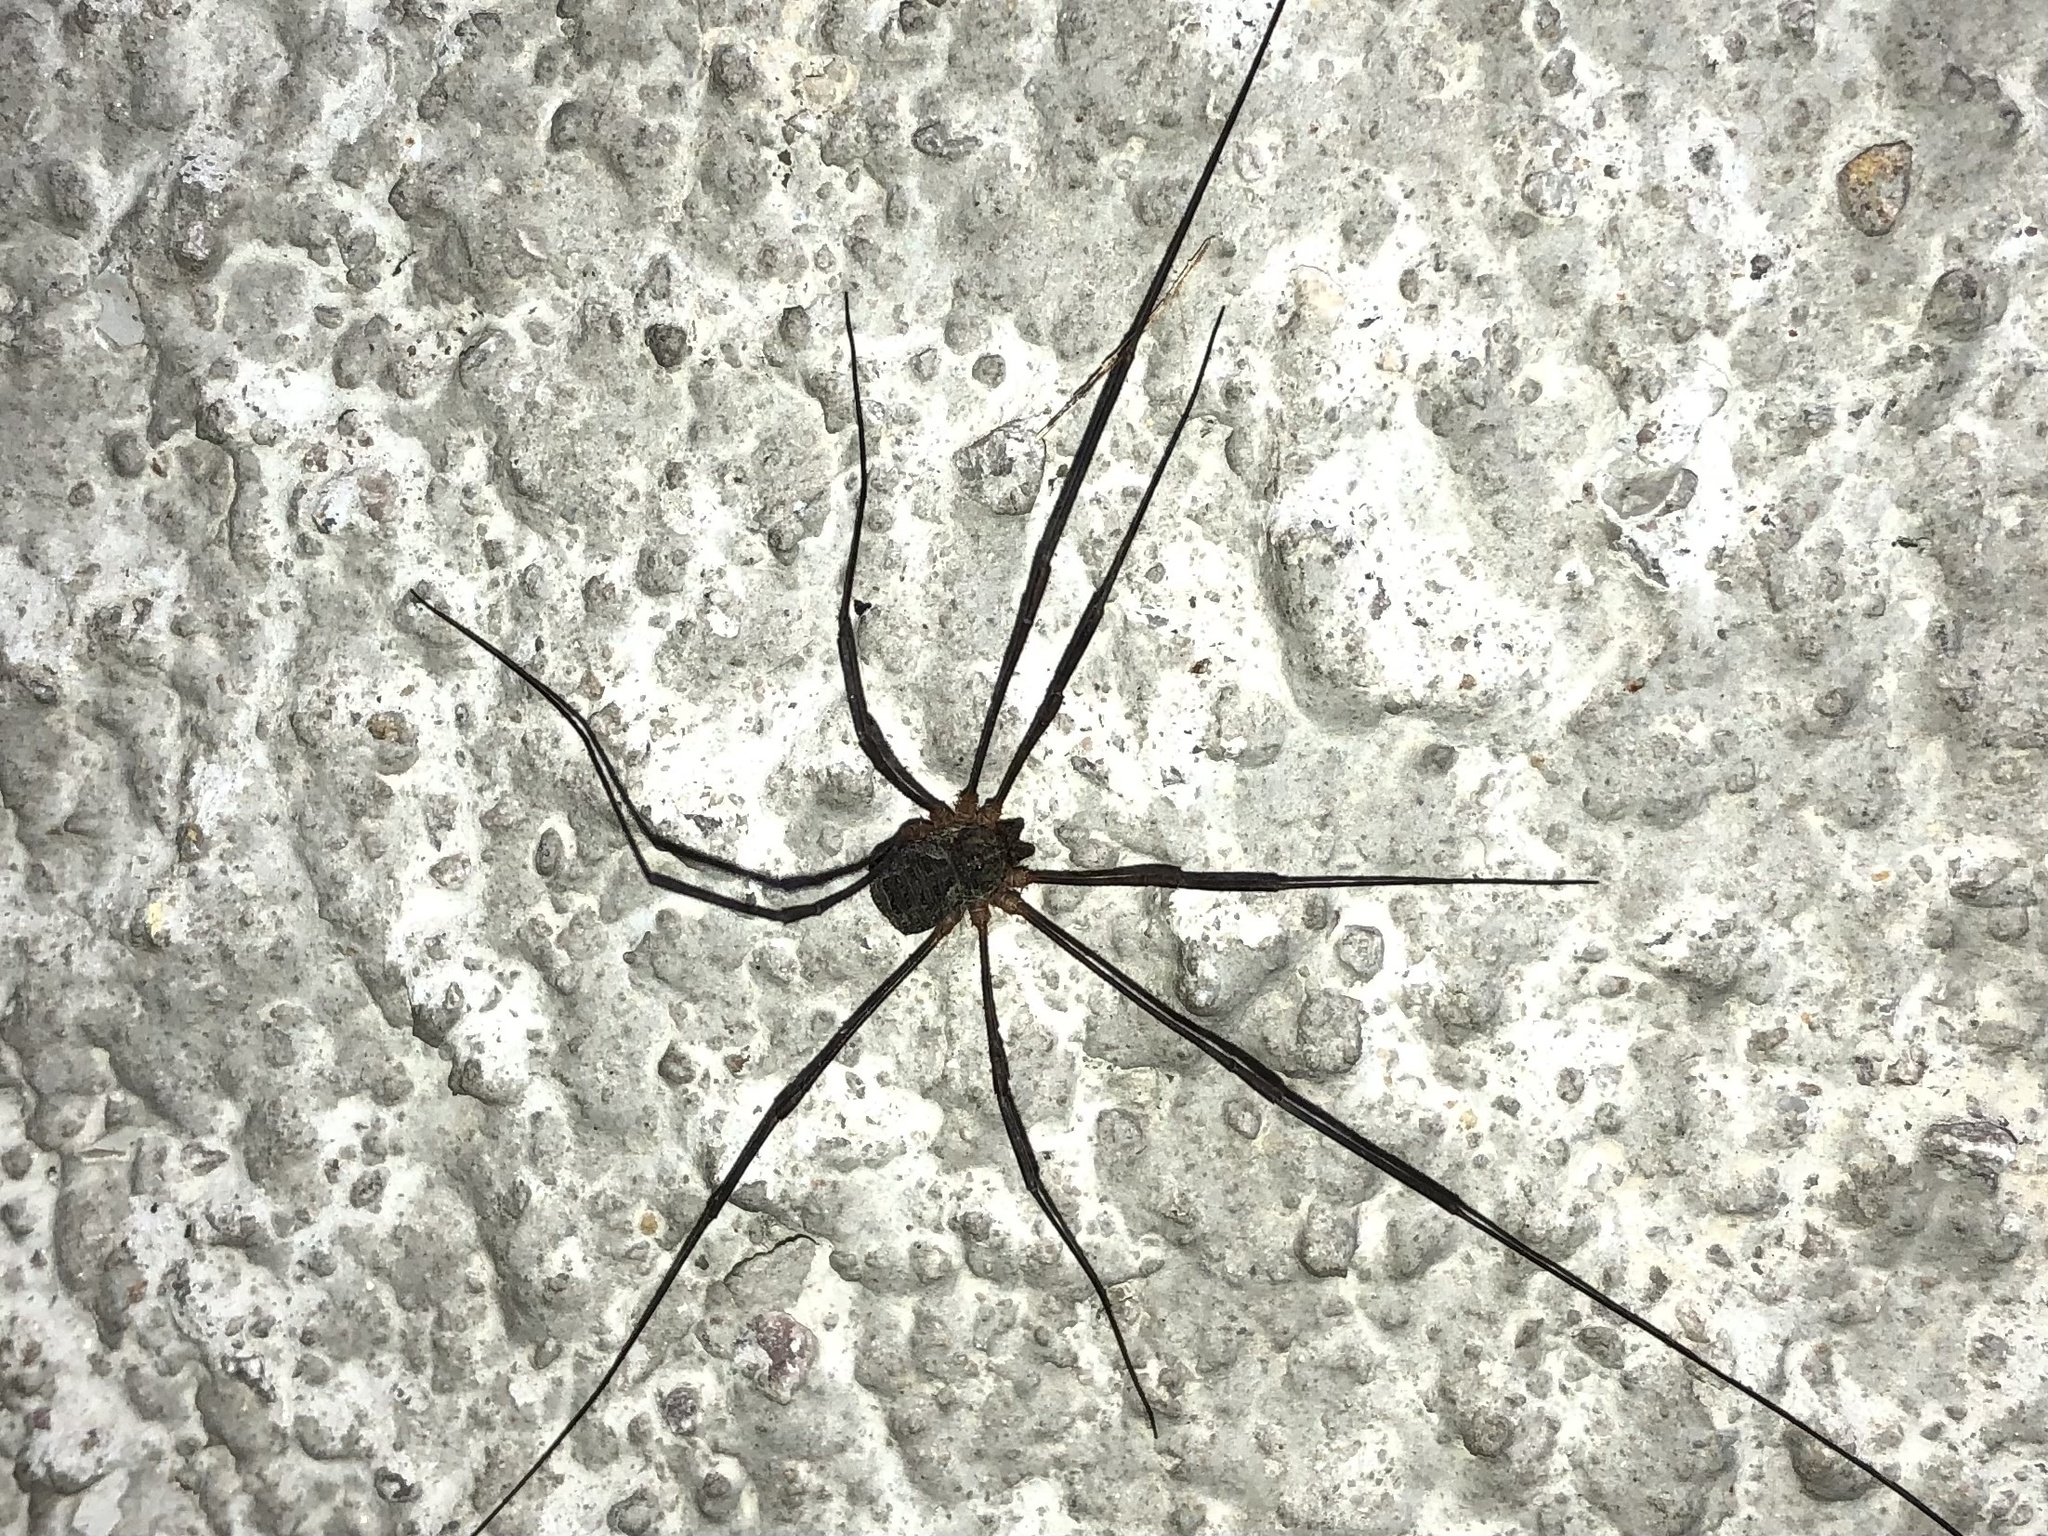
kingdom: Animalia
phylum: Arthropoda
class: Arachnida
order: Opiliones
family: Phalangiidae
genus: Lacinius
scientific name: Lacinius dentiger
